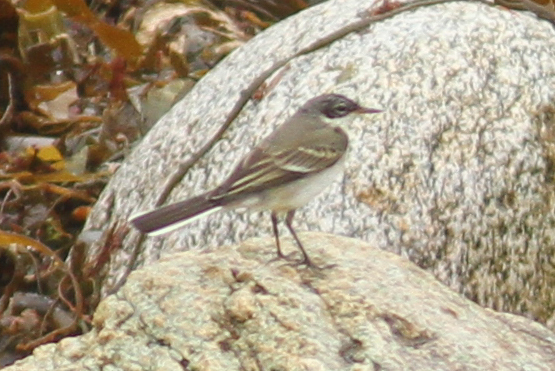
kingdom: Animalia
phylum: Chordata
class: Aves
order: Passeriformes
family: Motacillidae
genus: Motacilla
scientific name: Motacilla flava
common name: Western yellow wagtail
